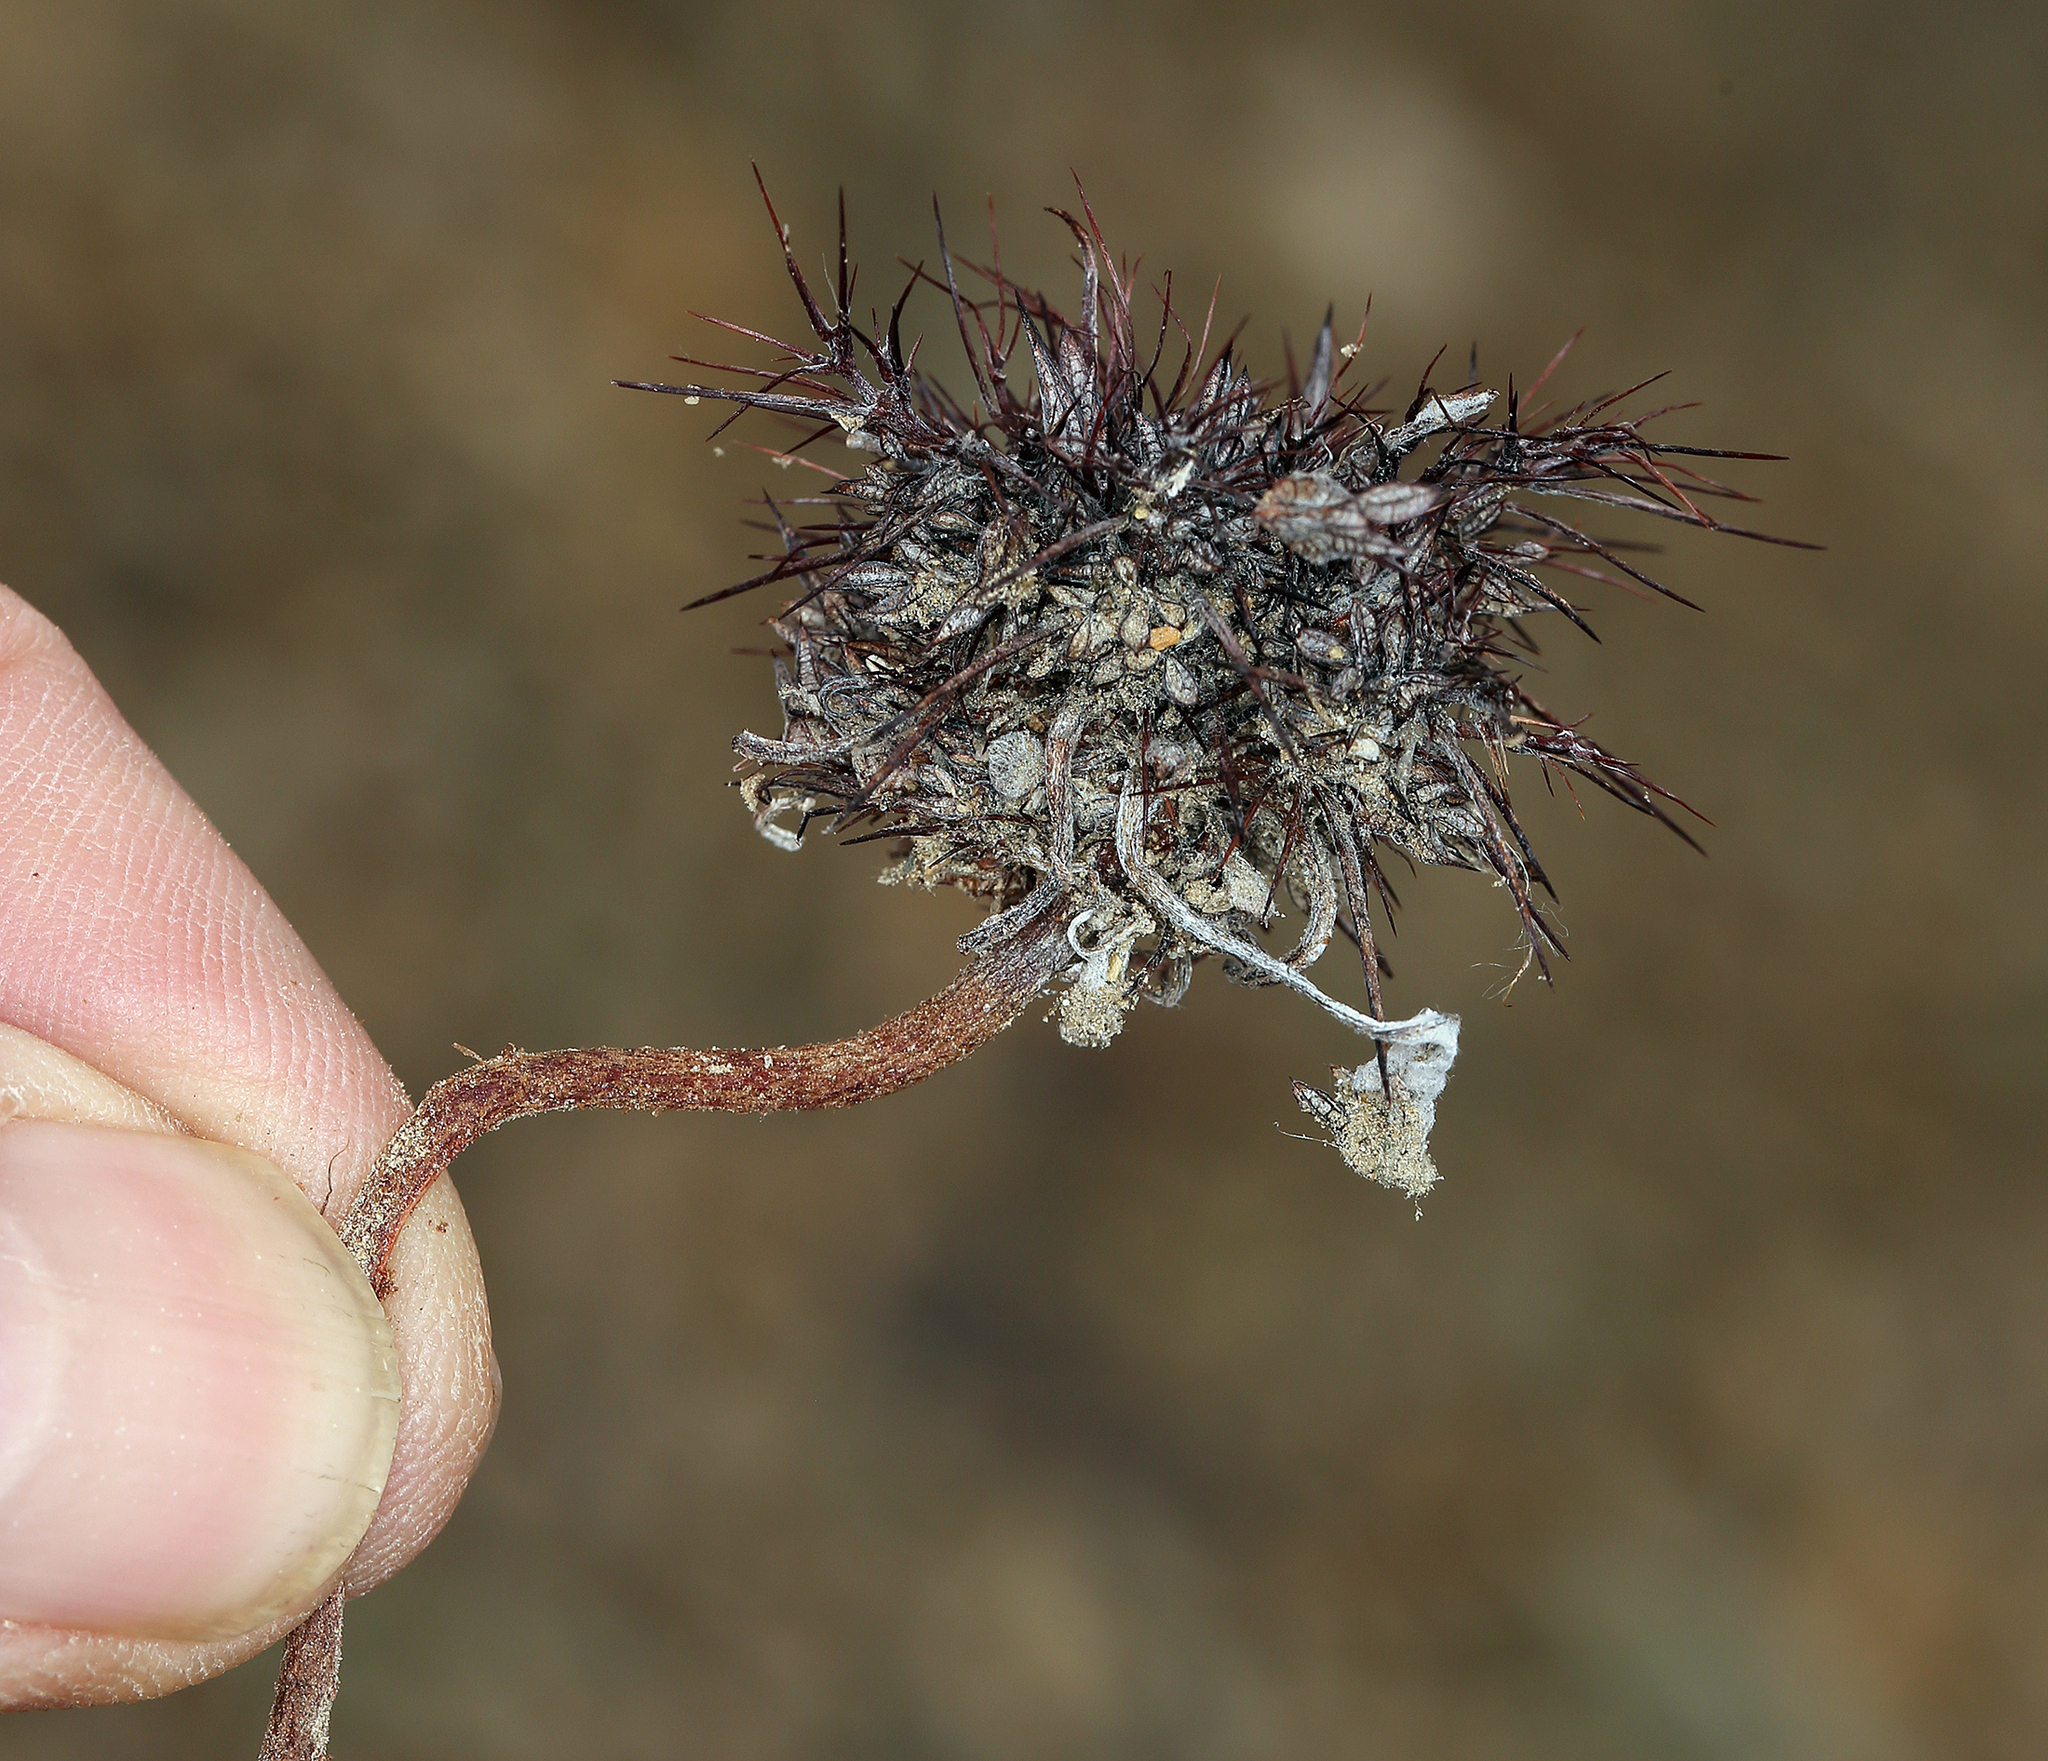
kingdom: Plantae
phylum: Tracheophyta
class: Magnoliopsida
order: Caryophyllales
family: Polygonaceae
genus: Chorizanthe
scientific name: Chorizanthe rigida
